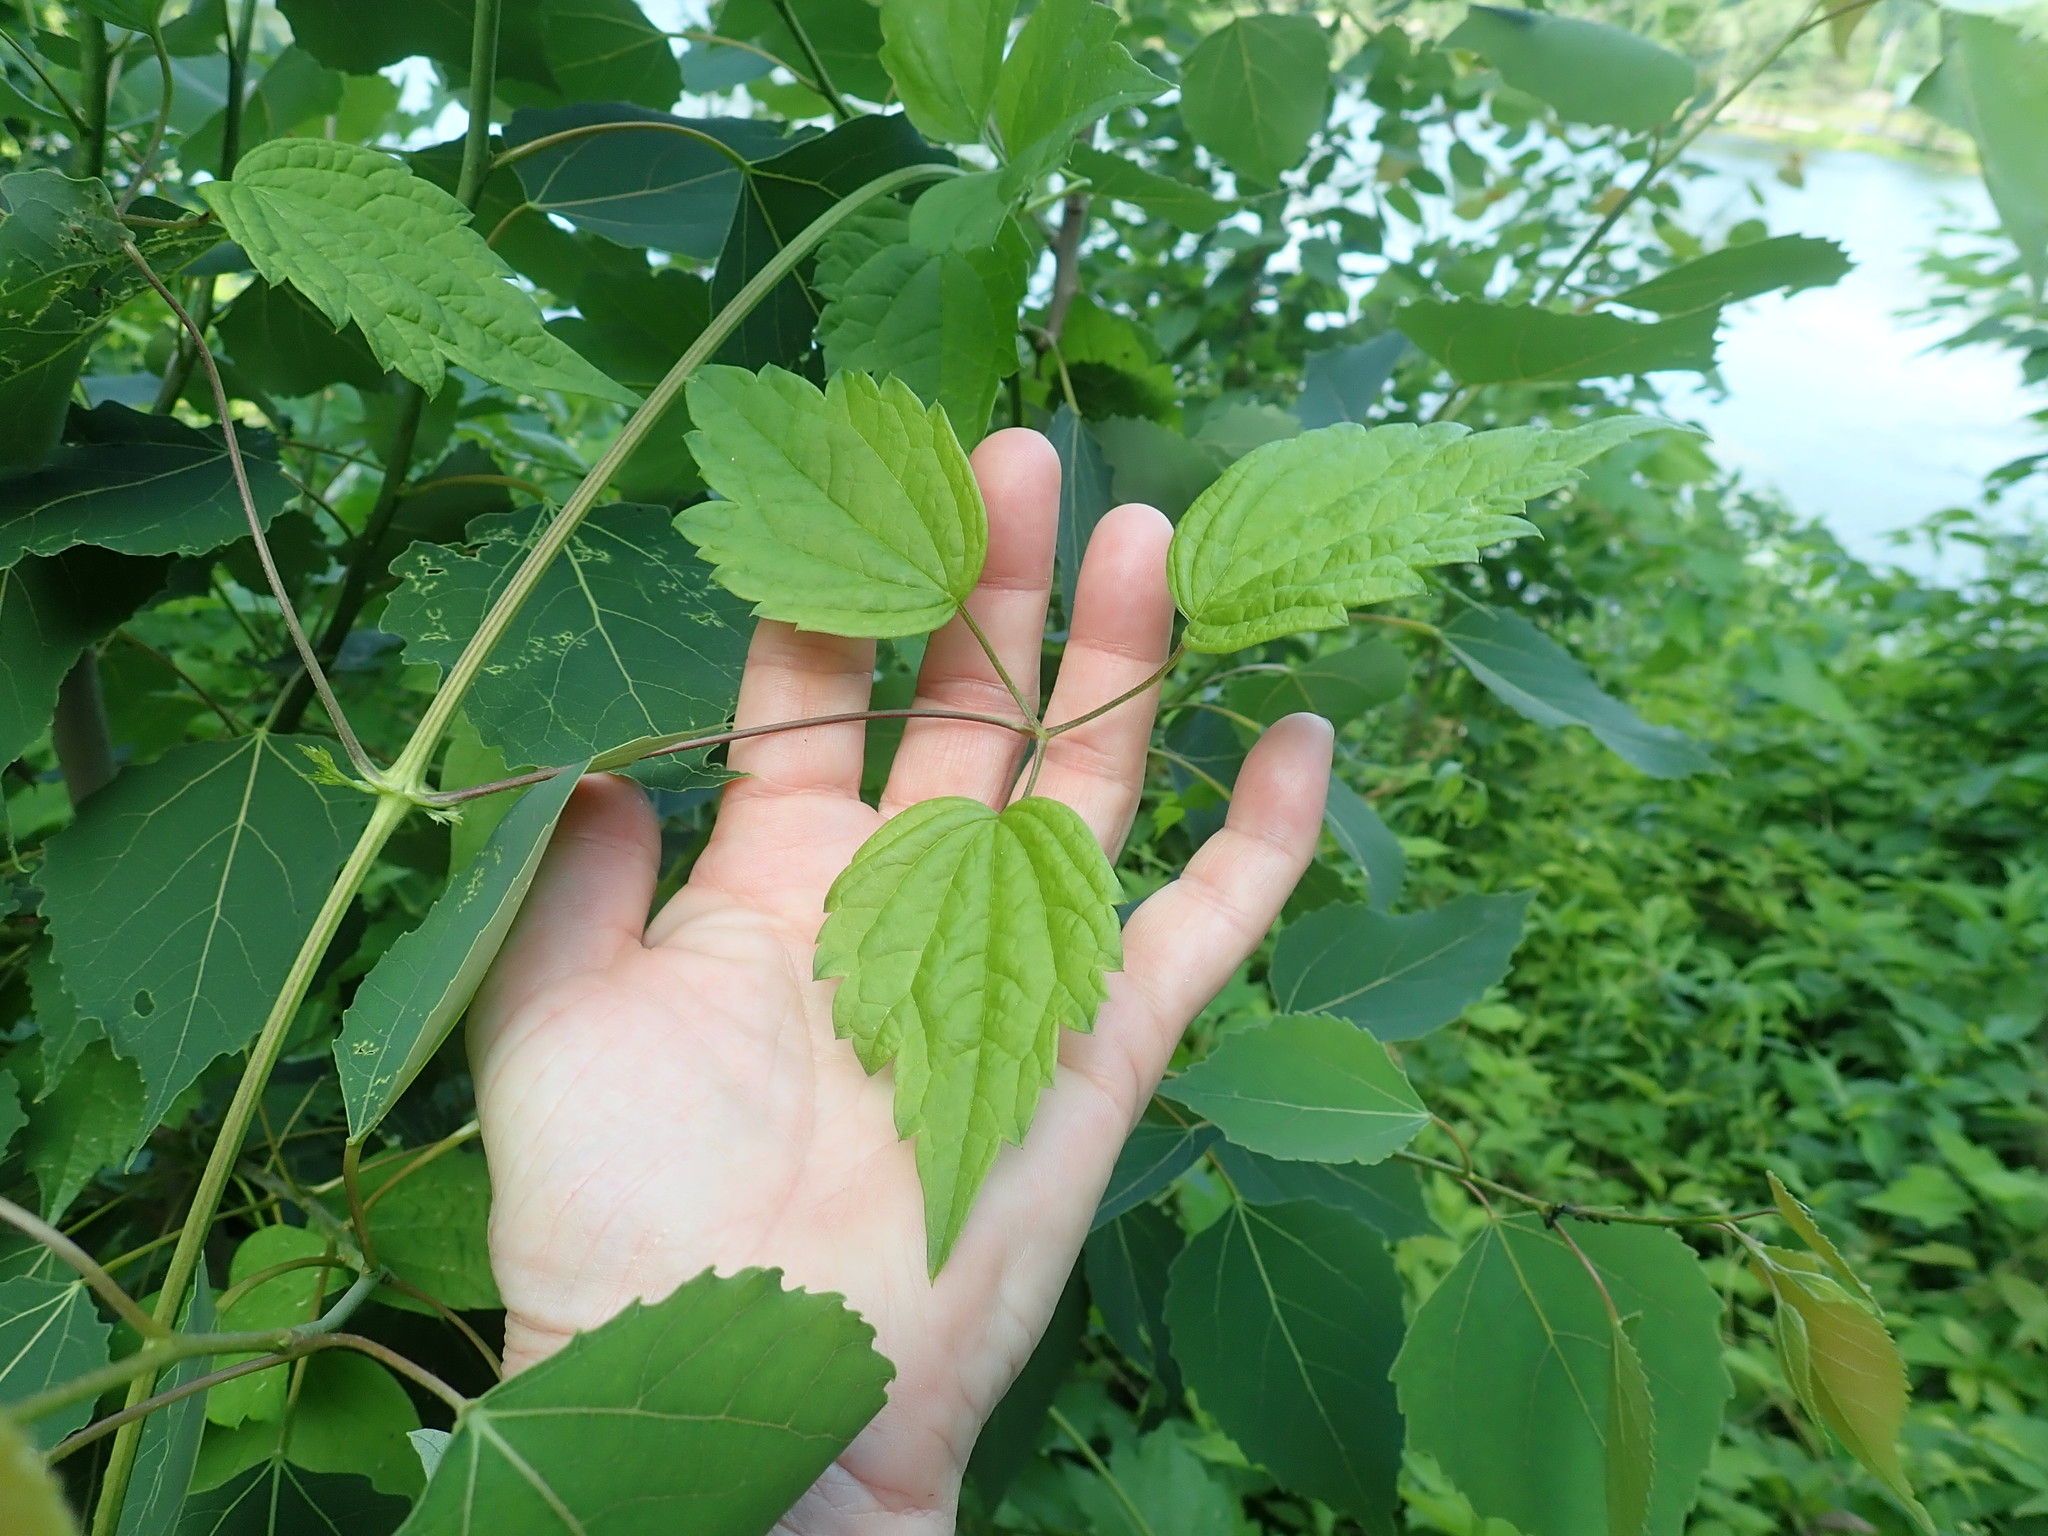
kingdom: Plantae
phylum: Tracheophyta
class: Magnoliopsida
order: Ranunculales
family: Ranunculaceae
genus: Clematis
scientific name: Clematis virginiana
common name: Virgin's-bower
